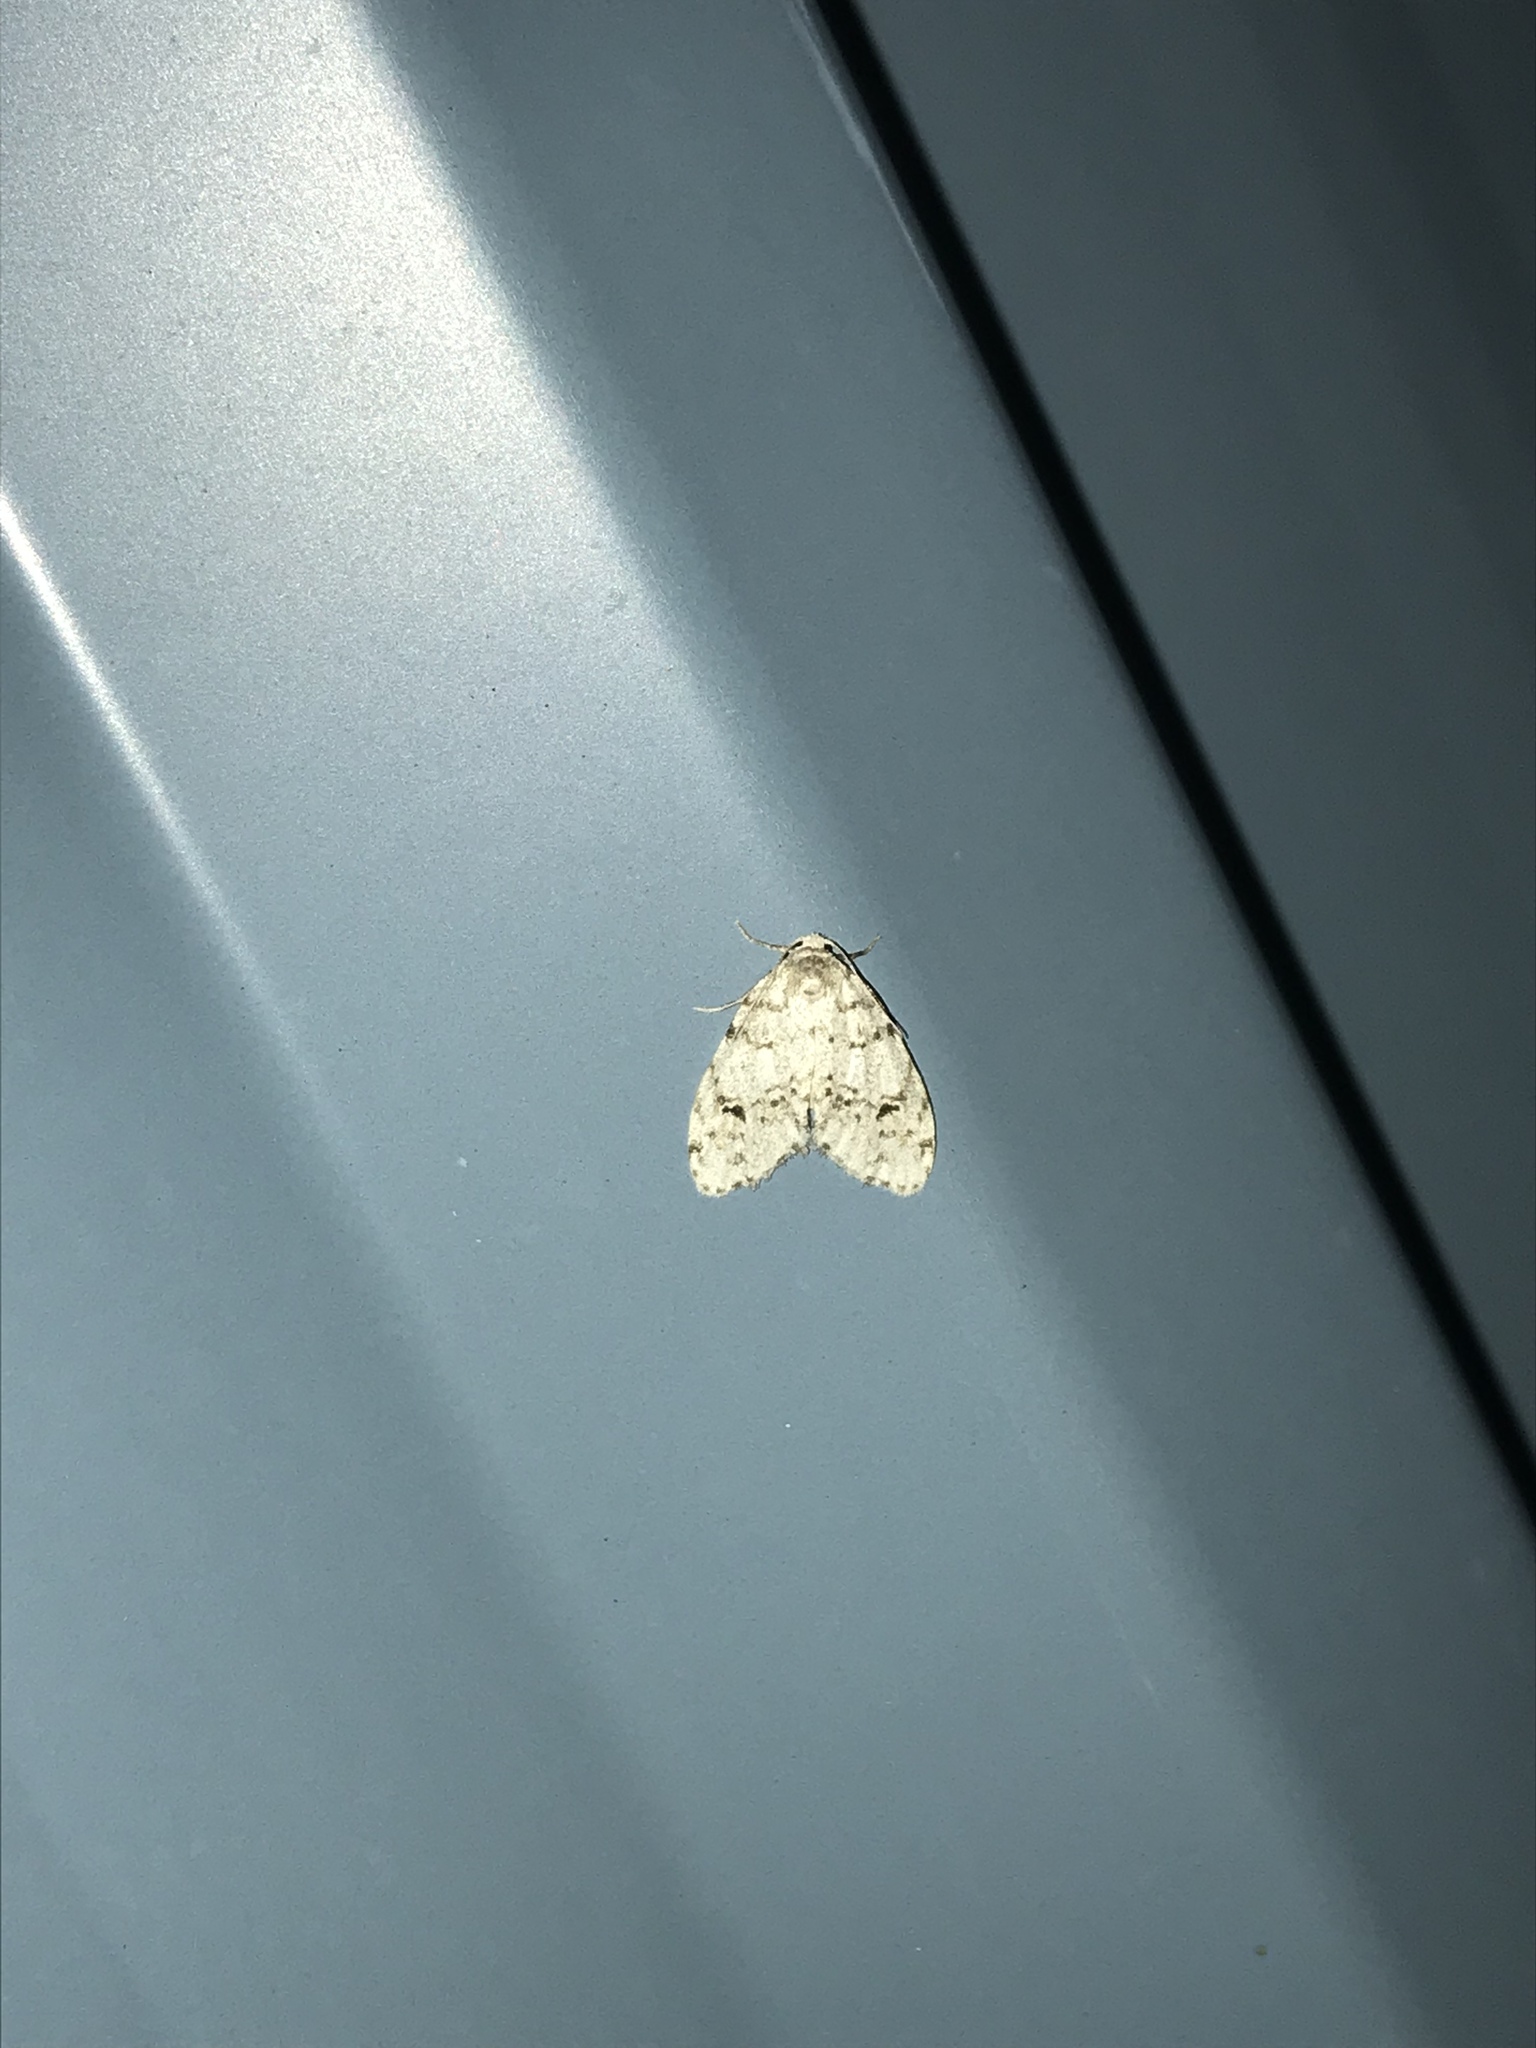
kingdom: Animalia
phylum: Arthropoda
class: Insecta
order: Lepidoptera
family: Erebidae
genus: Clemensia
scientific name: Clemensia albata
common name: Little white lichen moth
